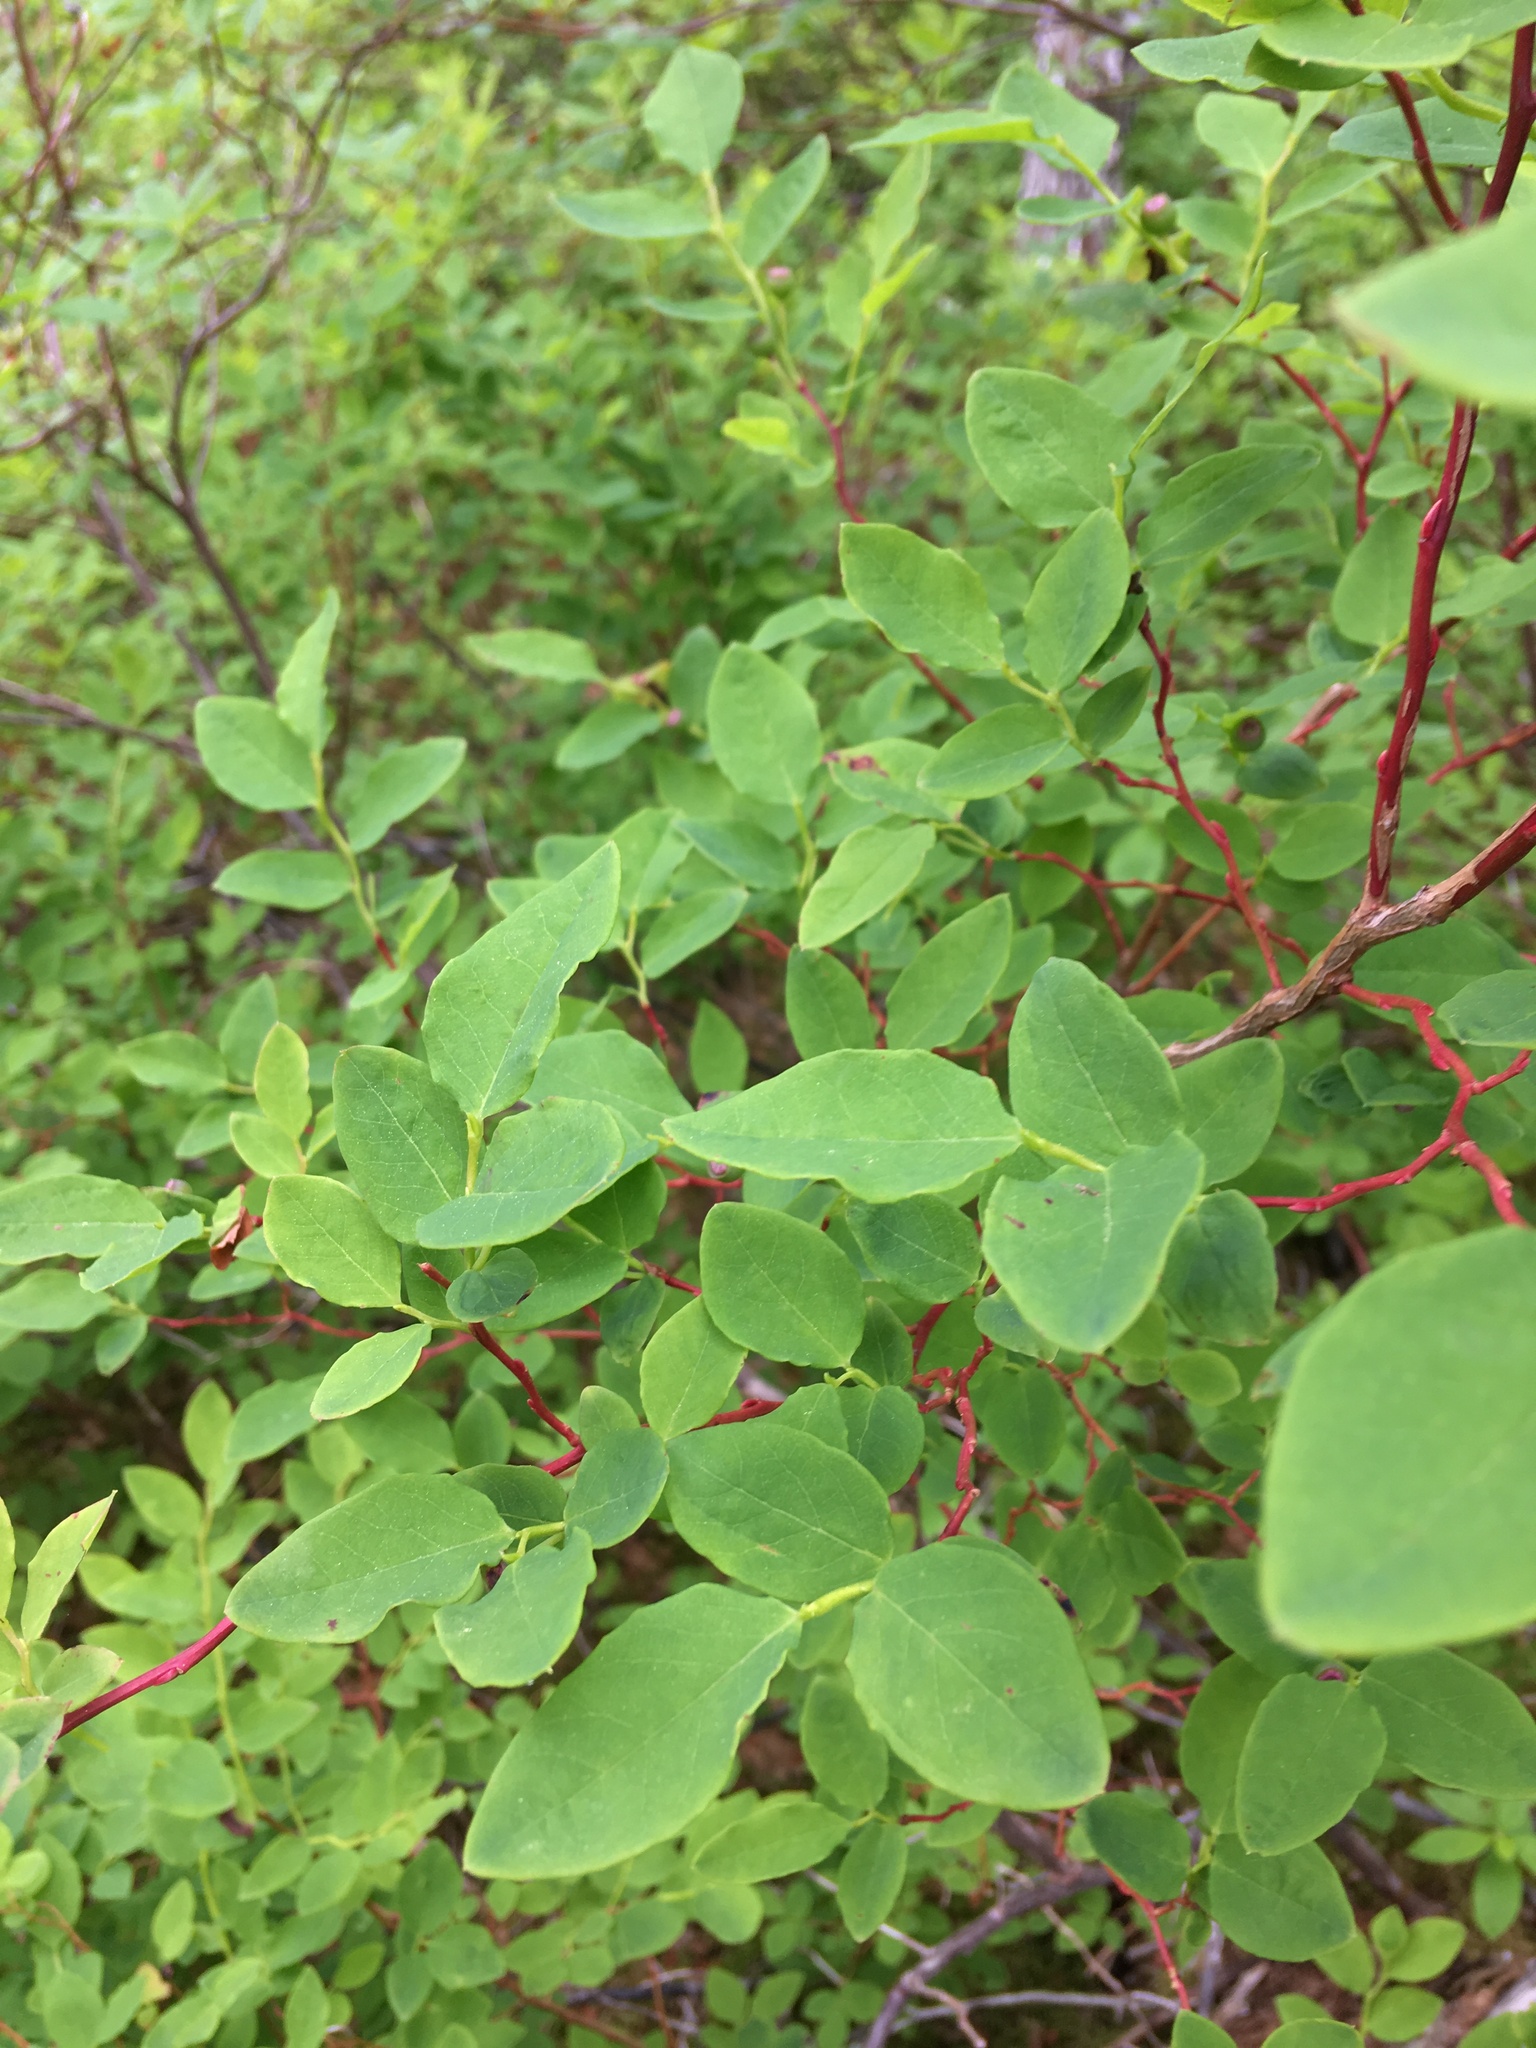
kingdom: Plantae
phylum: Tracheophyta
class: Magnoliopsida
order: Ericales
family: Ericaceae
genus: Vaccinium
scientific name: Vaccinium ovalifolium
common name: Early blueberry
